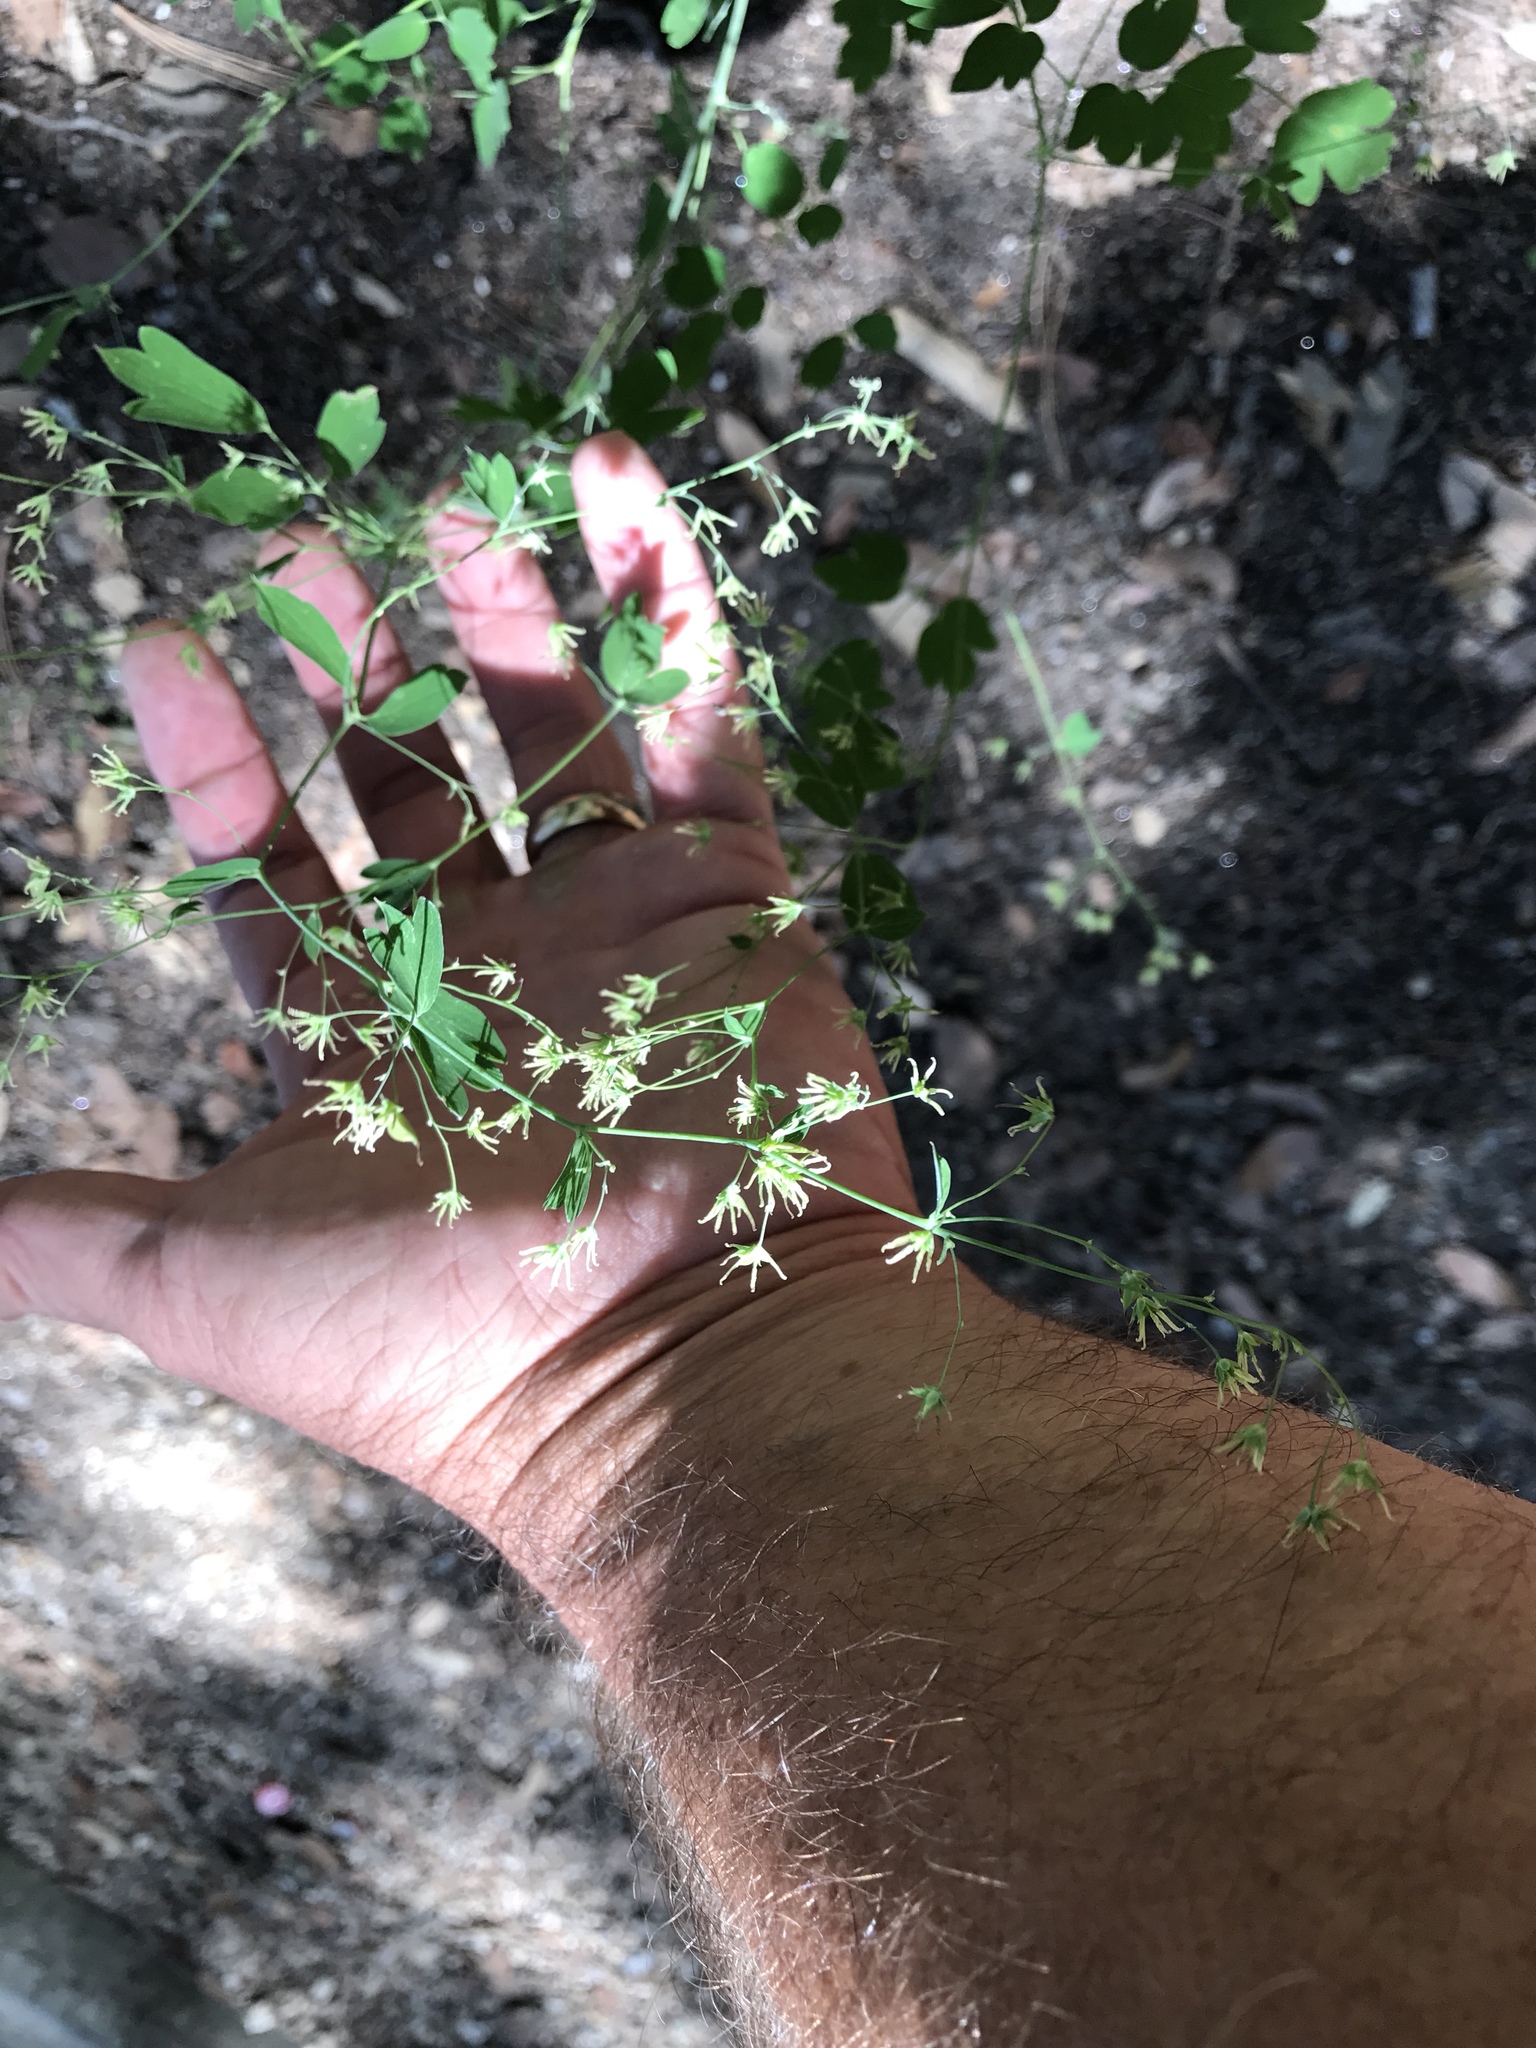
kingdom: Plantae
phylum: Tracheophyta
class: Magnoliopsida
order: Ranunculales
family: Ranunculaceae
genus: Thalictrum
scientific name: Thalictrum fendleri
